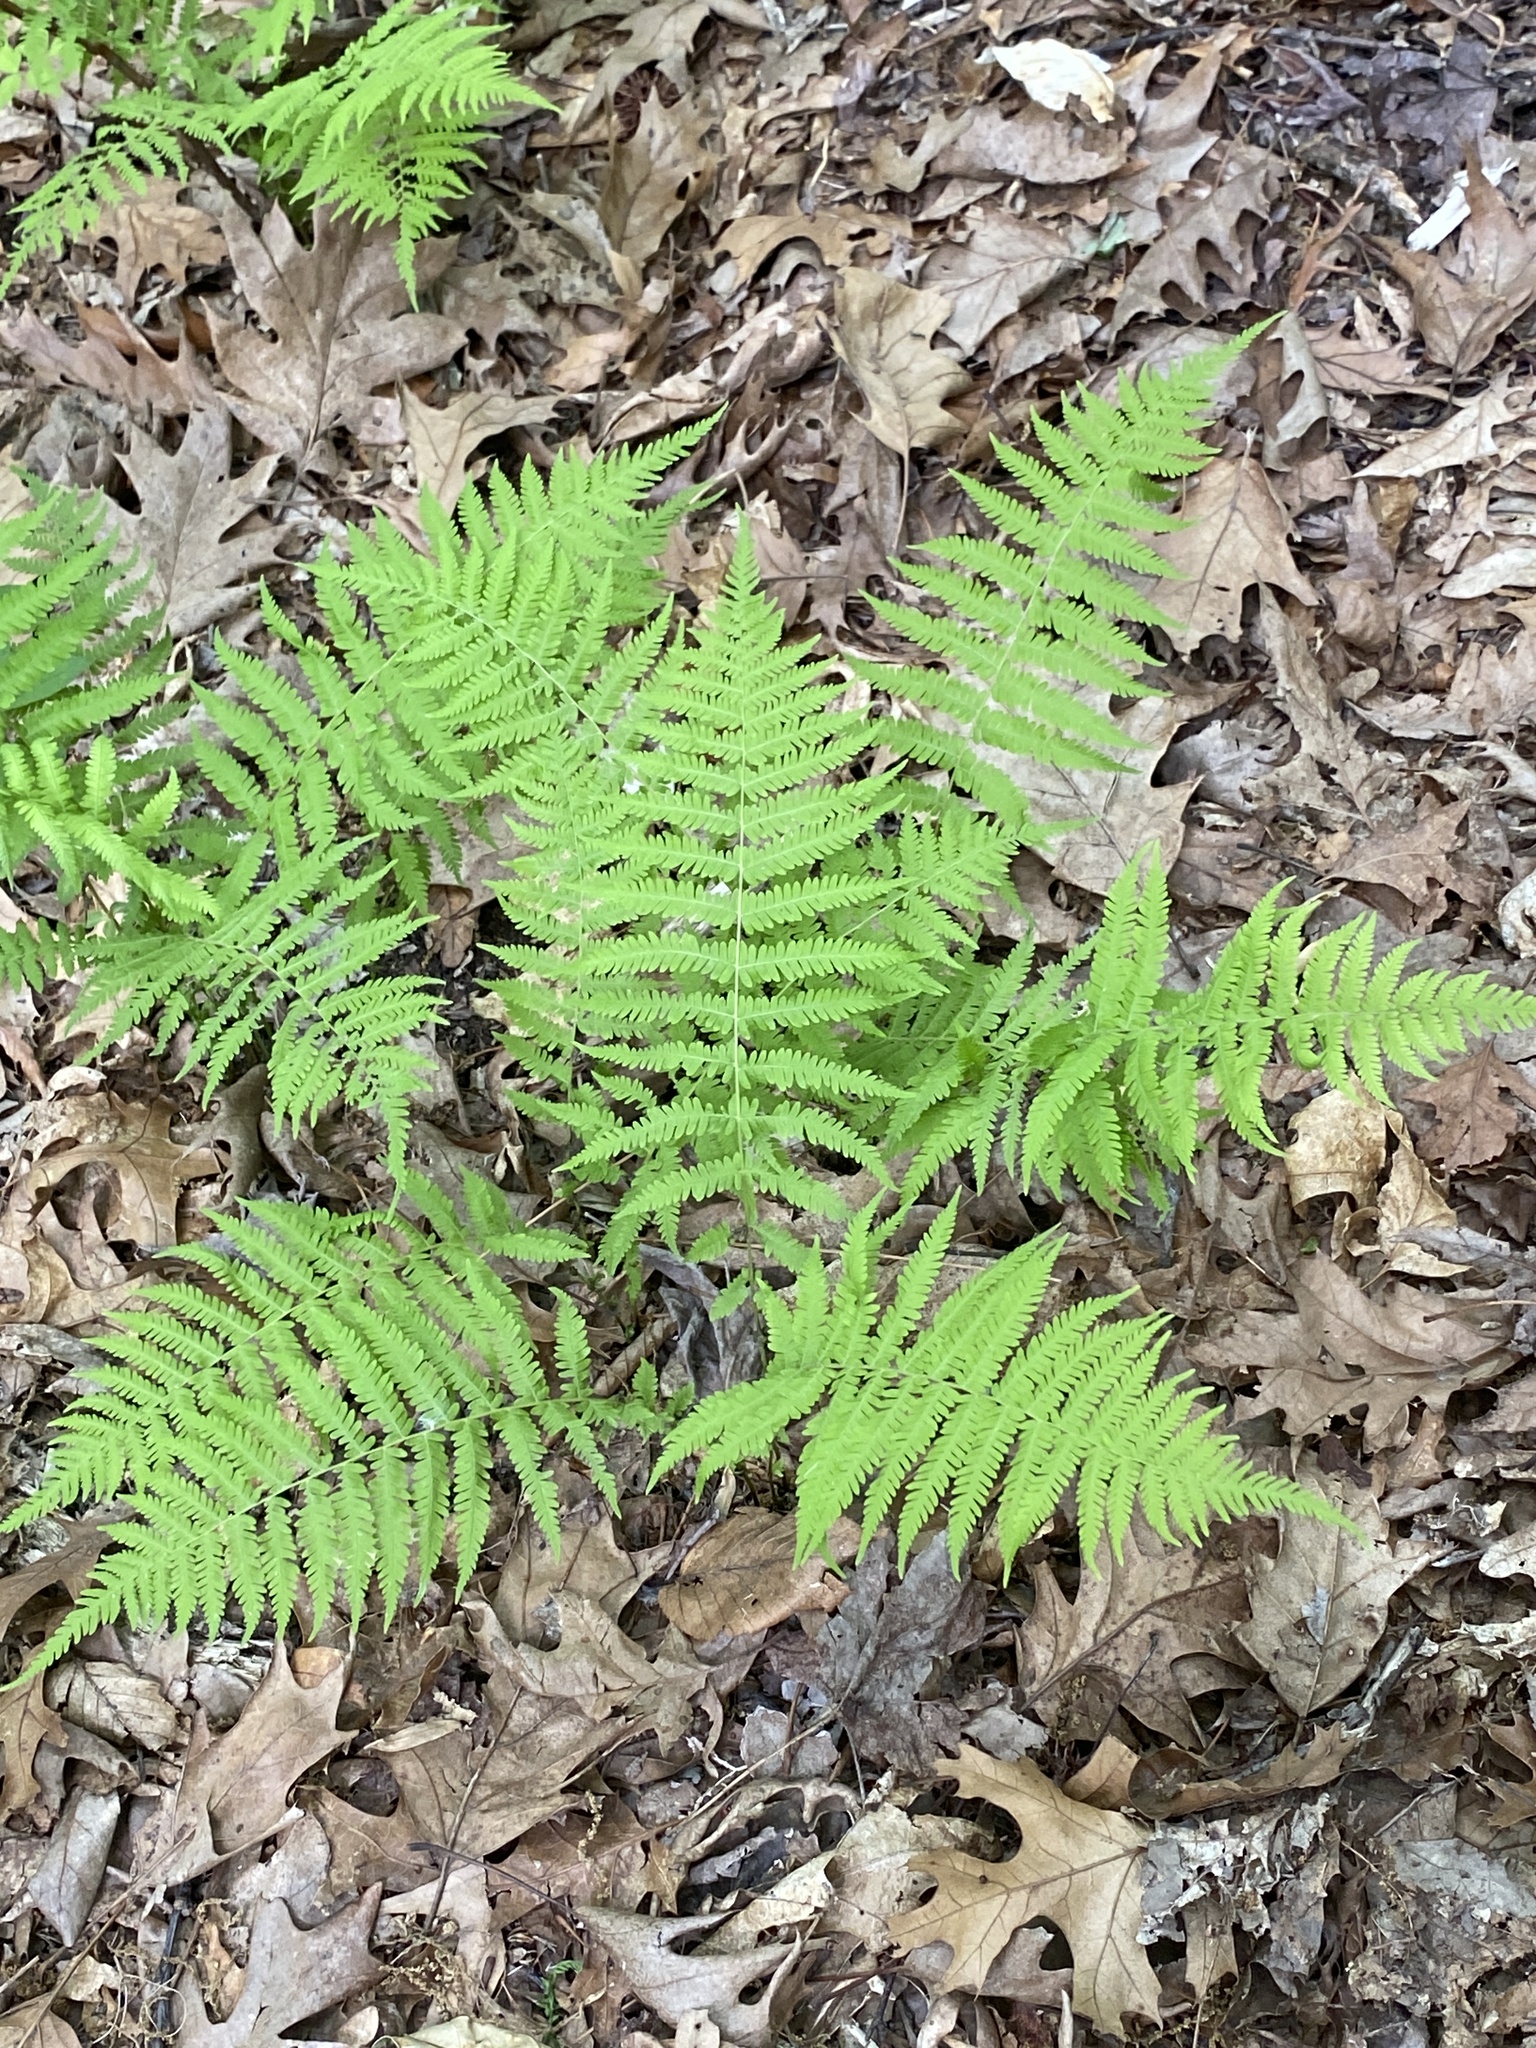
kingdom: Plantae
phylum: Tracheophyta
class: Polypodiopsida
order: Polypodiales
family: Thelypteridaceae
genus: Amauropelta
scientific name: Amauropelta noveboracensis
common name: New york fern
